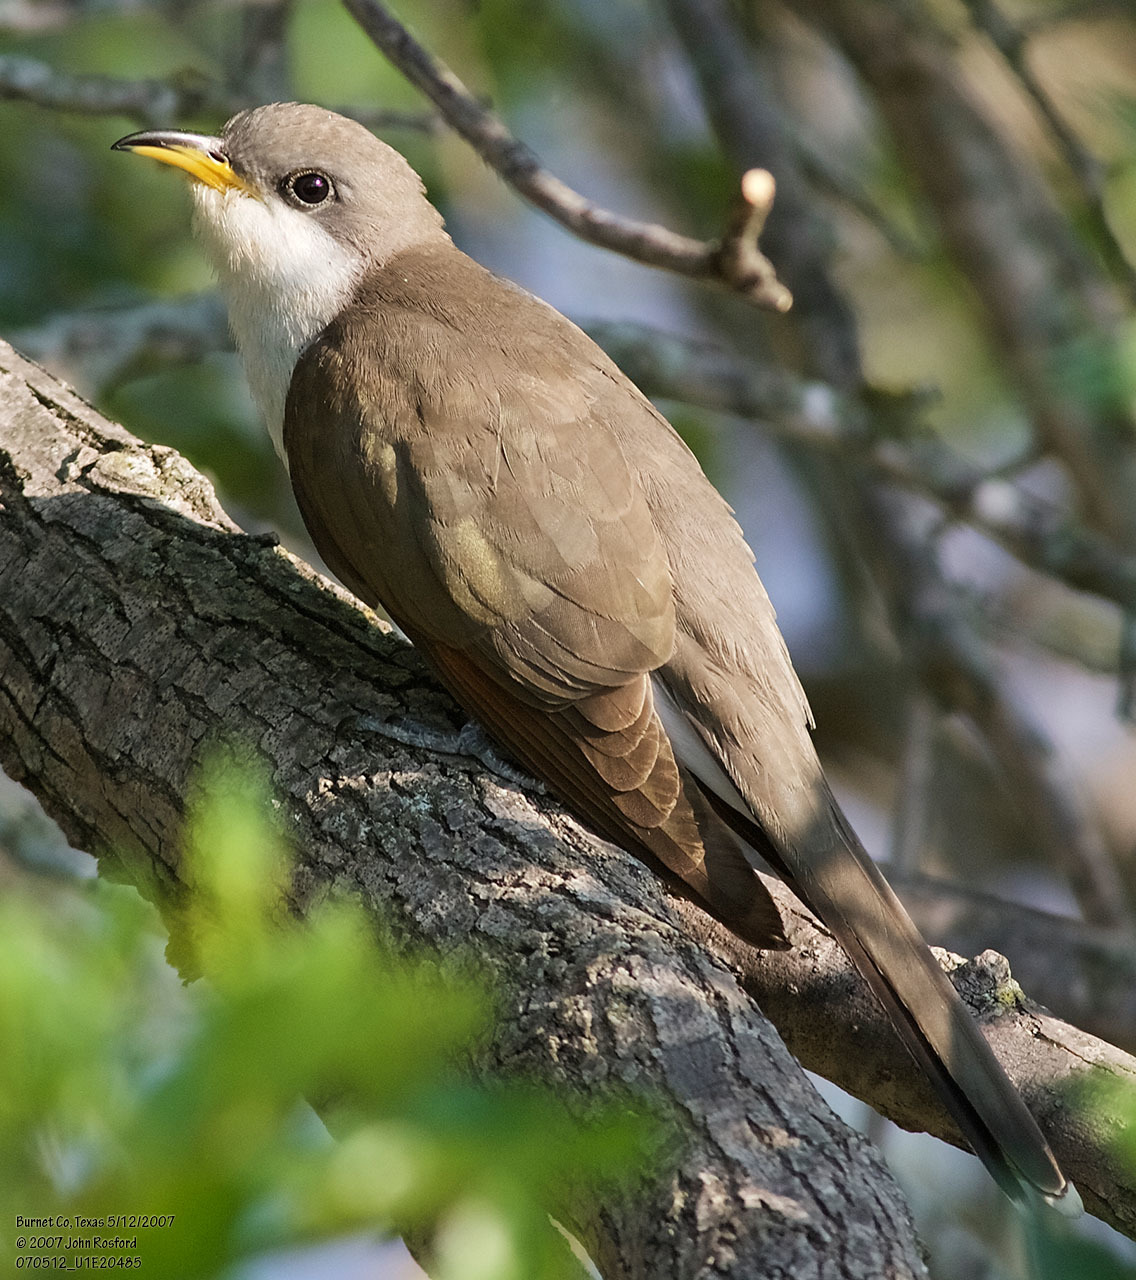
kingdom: Animalia
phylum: Chordata
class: Aves
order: Cuculiformes
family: Cuculidae
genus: Coccyzus
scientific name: Coccyzus americanus
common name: Yellow-billed cuckoo
